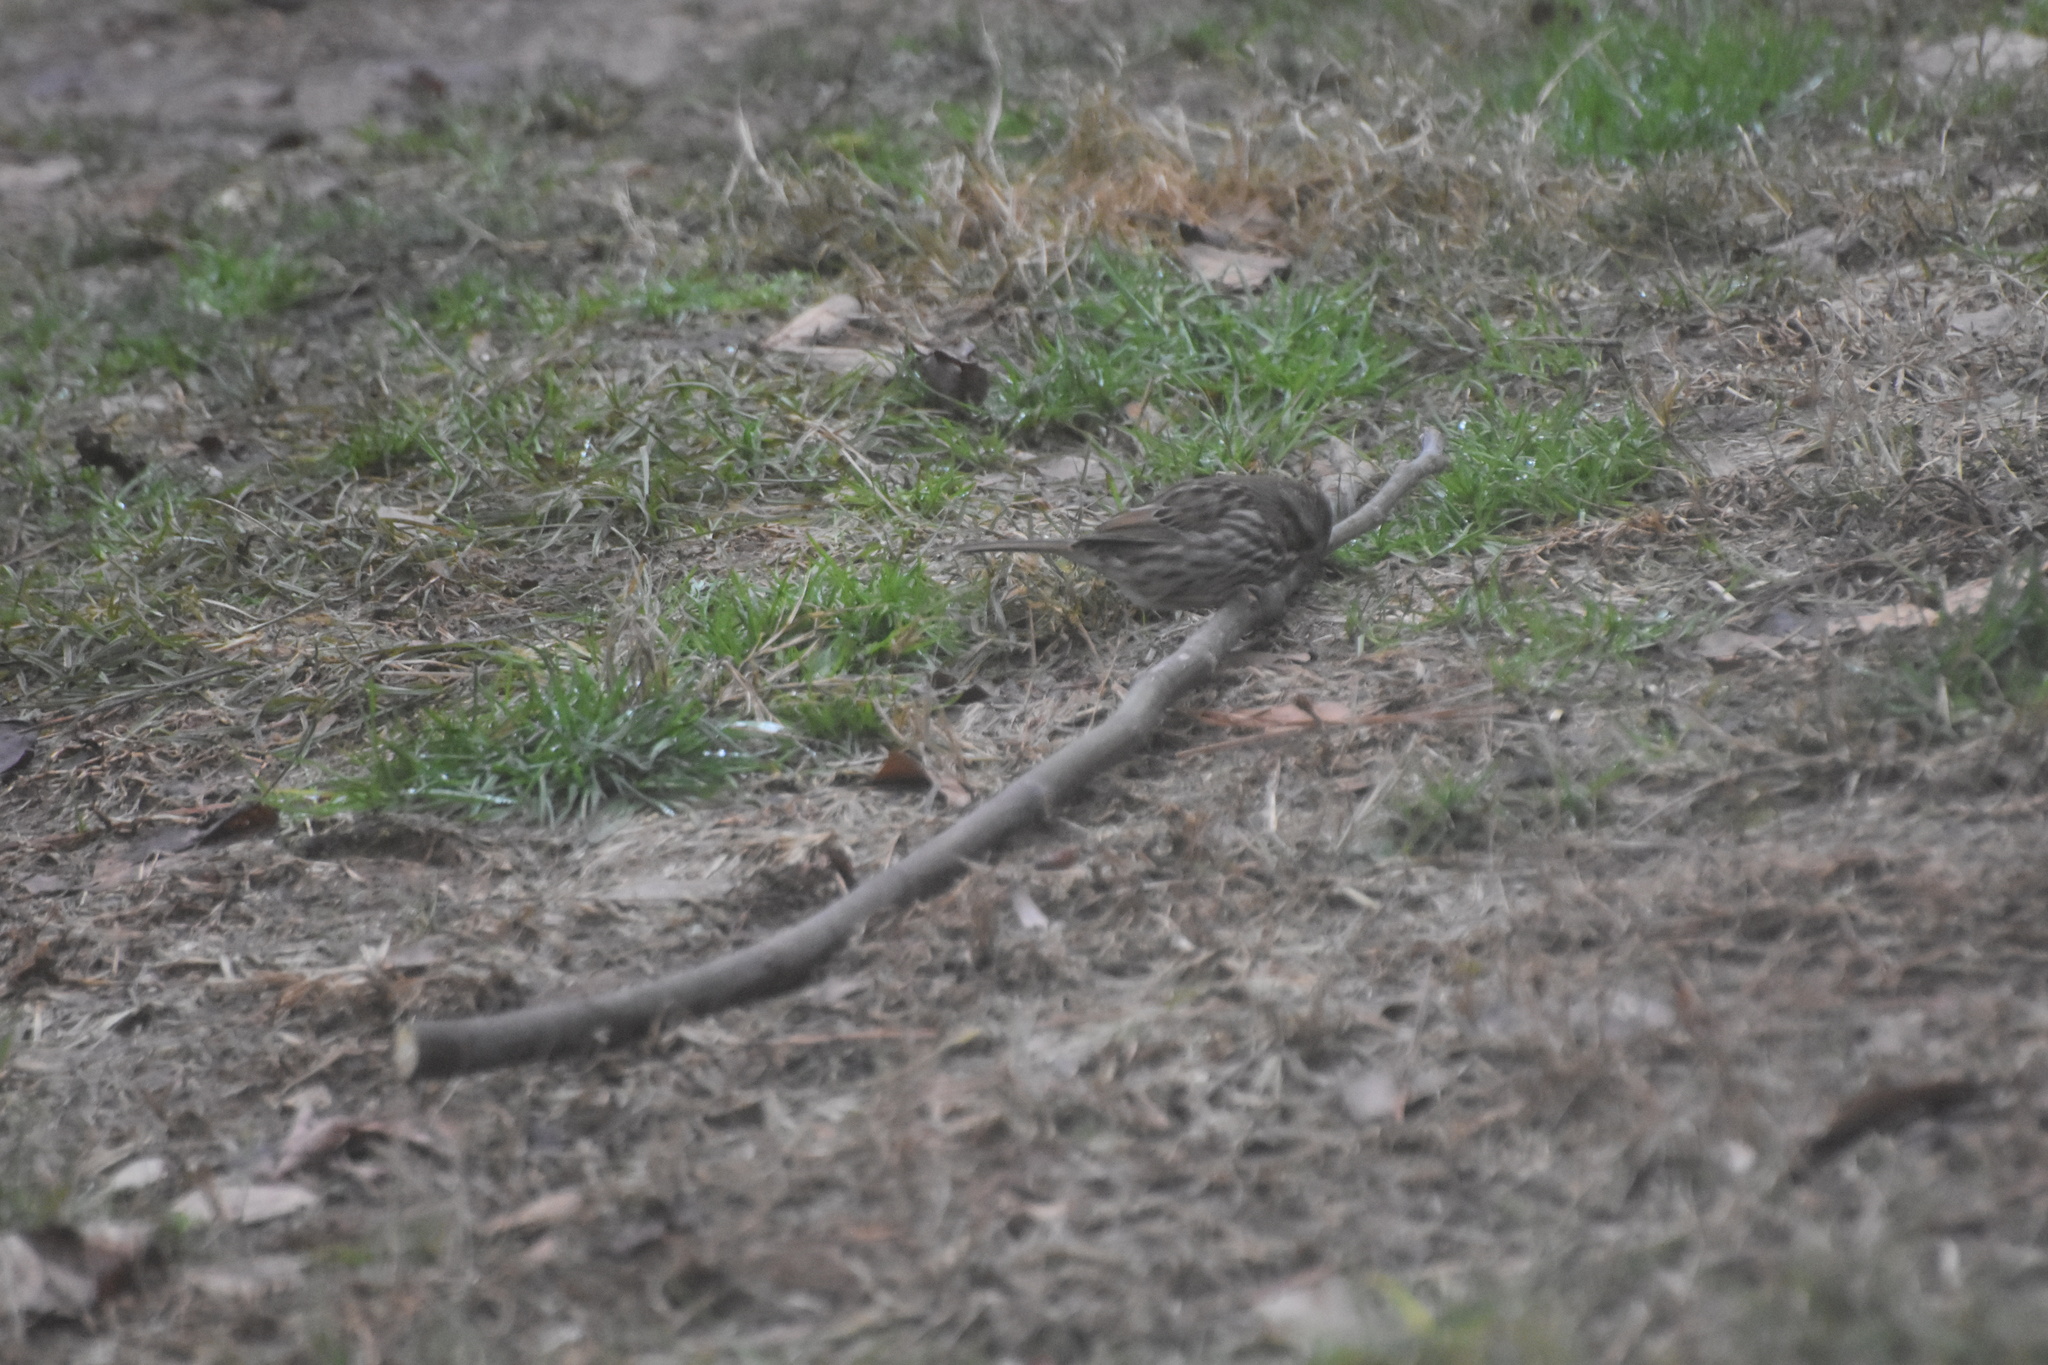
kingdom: Animalia
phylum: Chordata
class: Aves
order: Passeriformes
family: Passerellidae
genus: Melospiza
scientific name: Melospiza melodia
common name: Song sparrow
